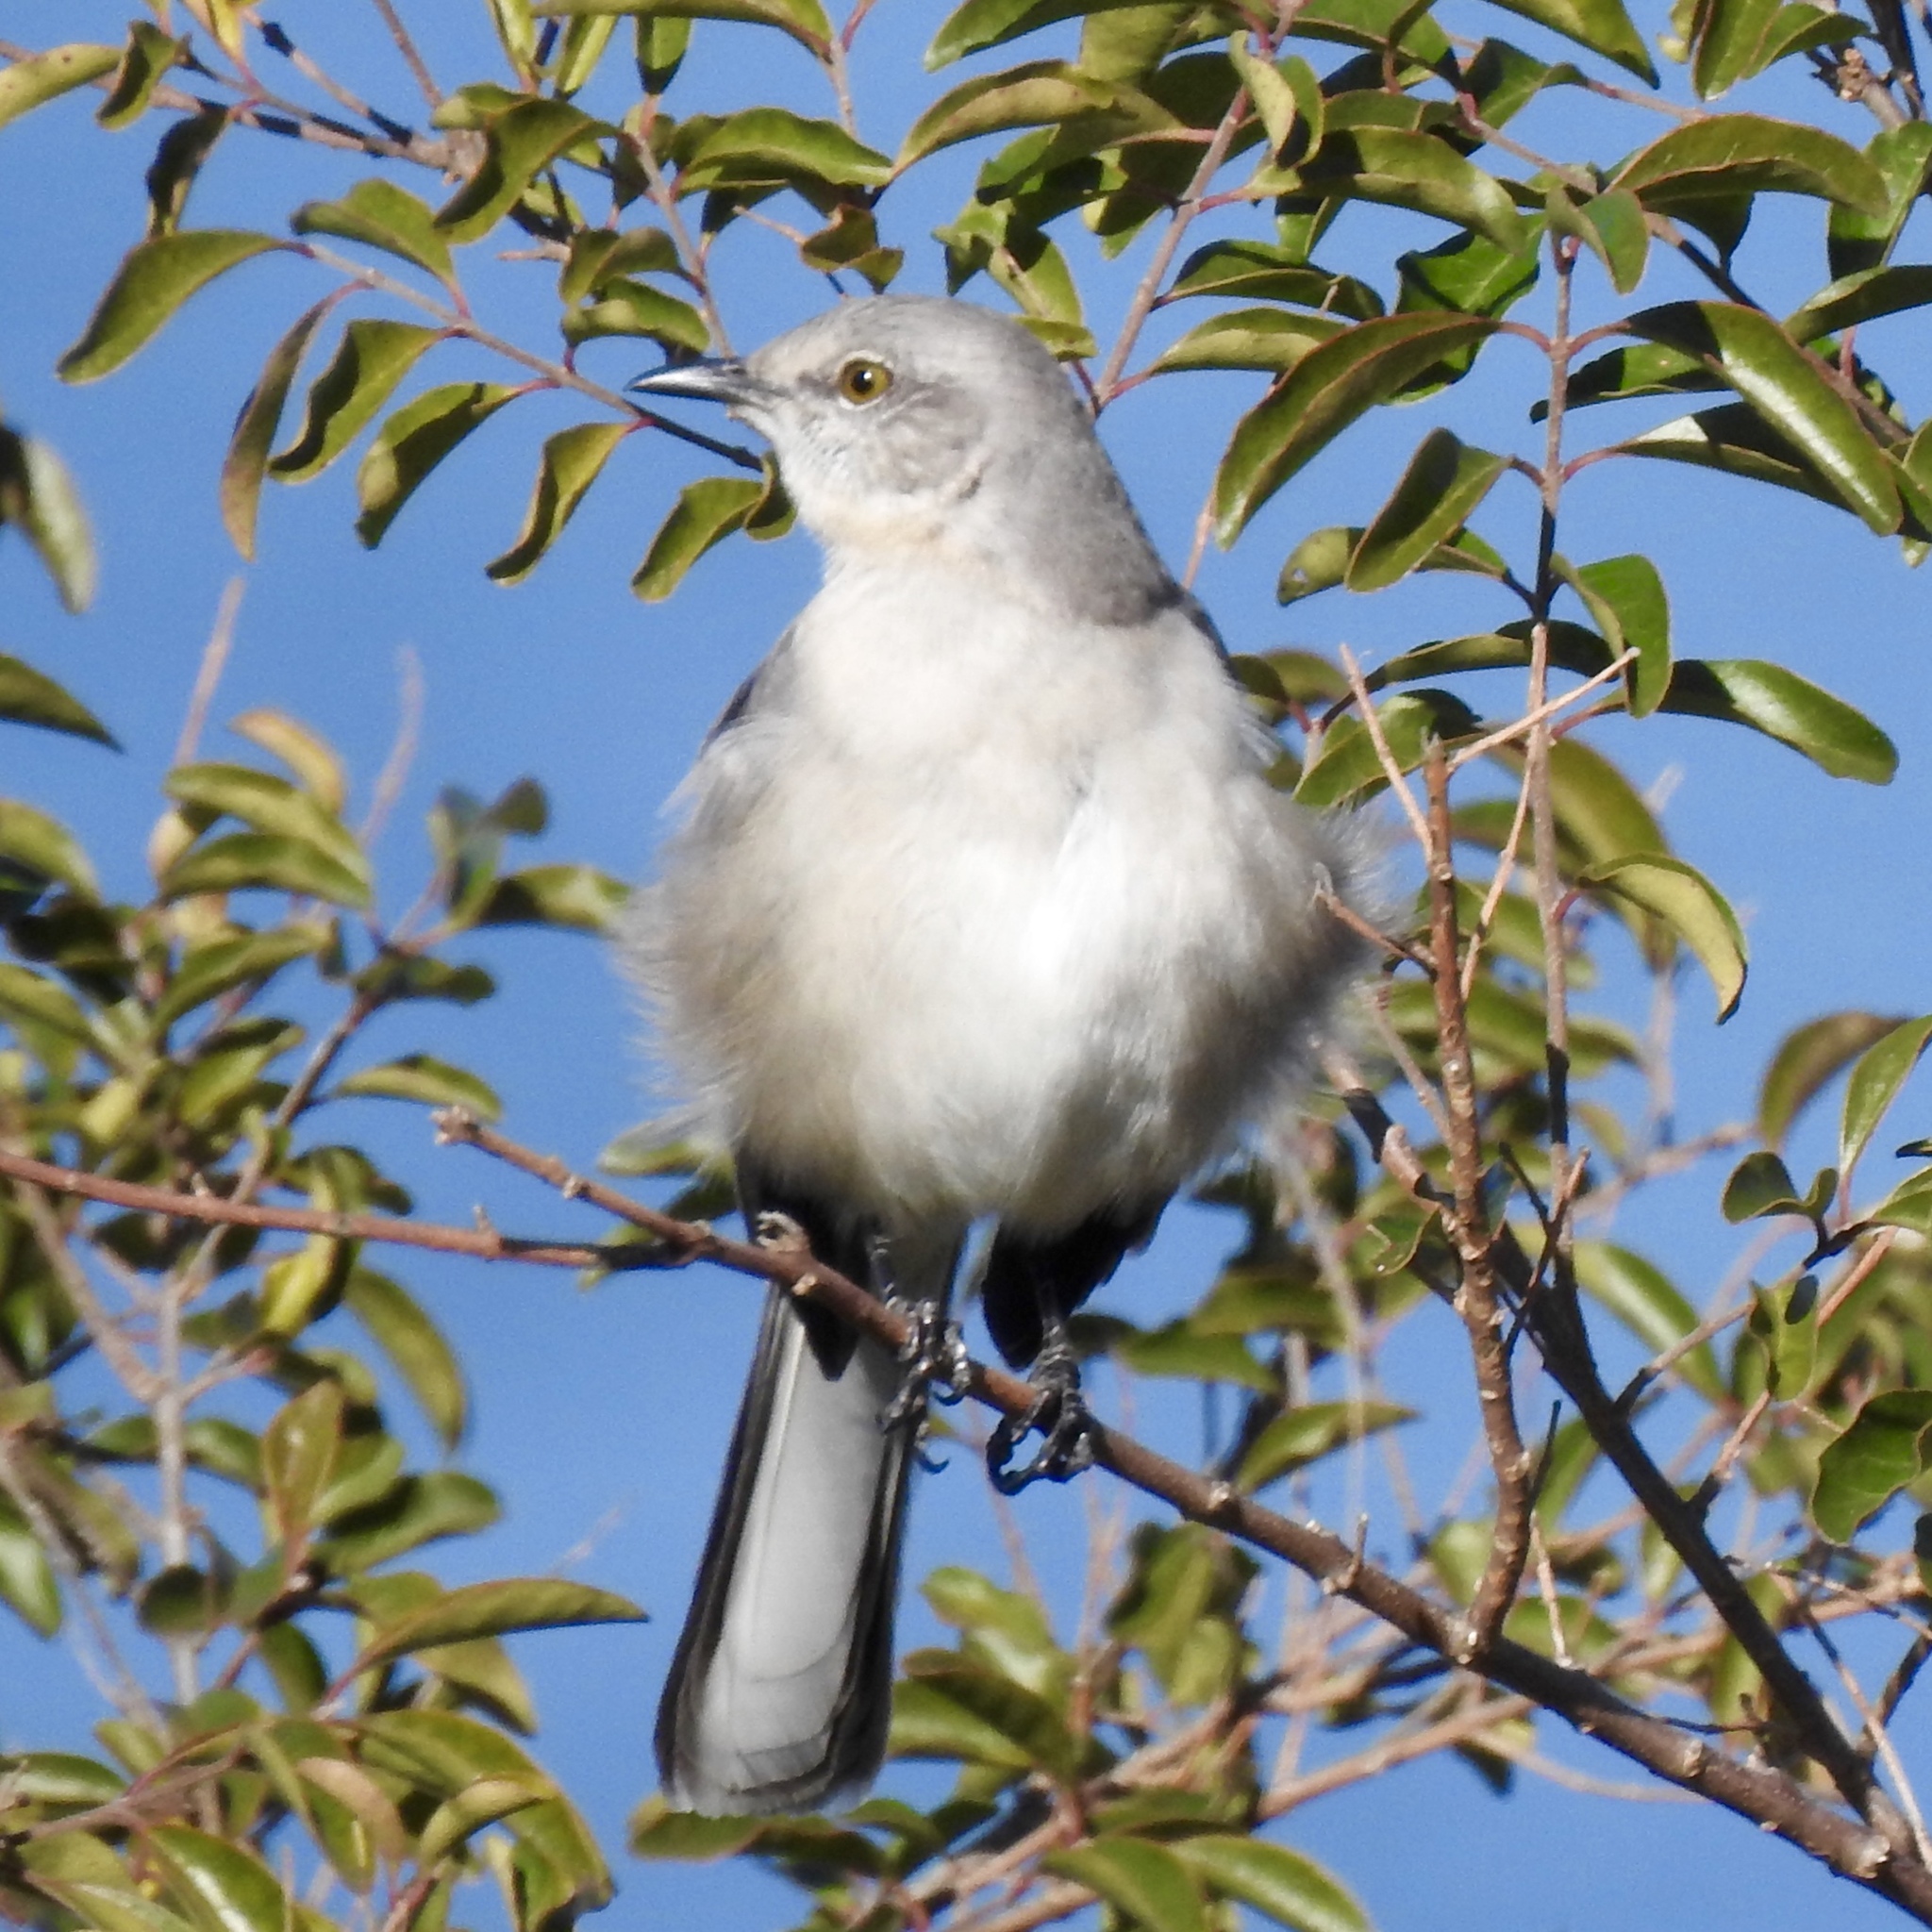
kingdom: Animalia
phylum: Chordata
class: Aves
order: Passeriformes
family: Mimidae
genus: Mimus
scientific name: Mimus polyglottos
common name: Northern mockingbird
